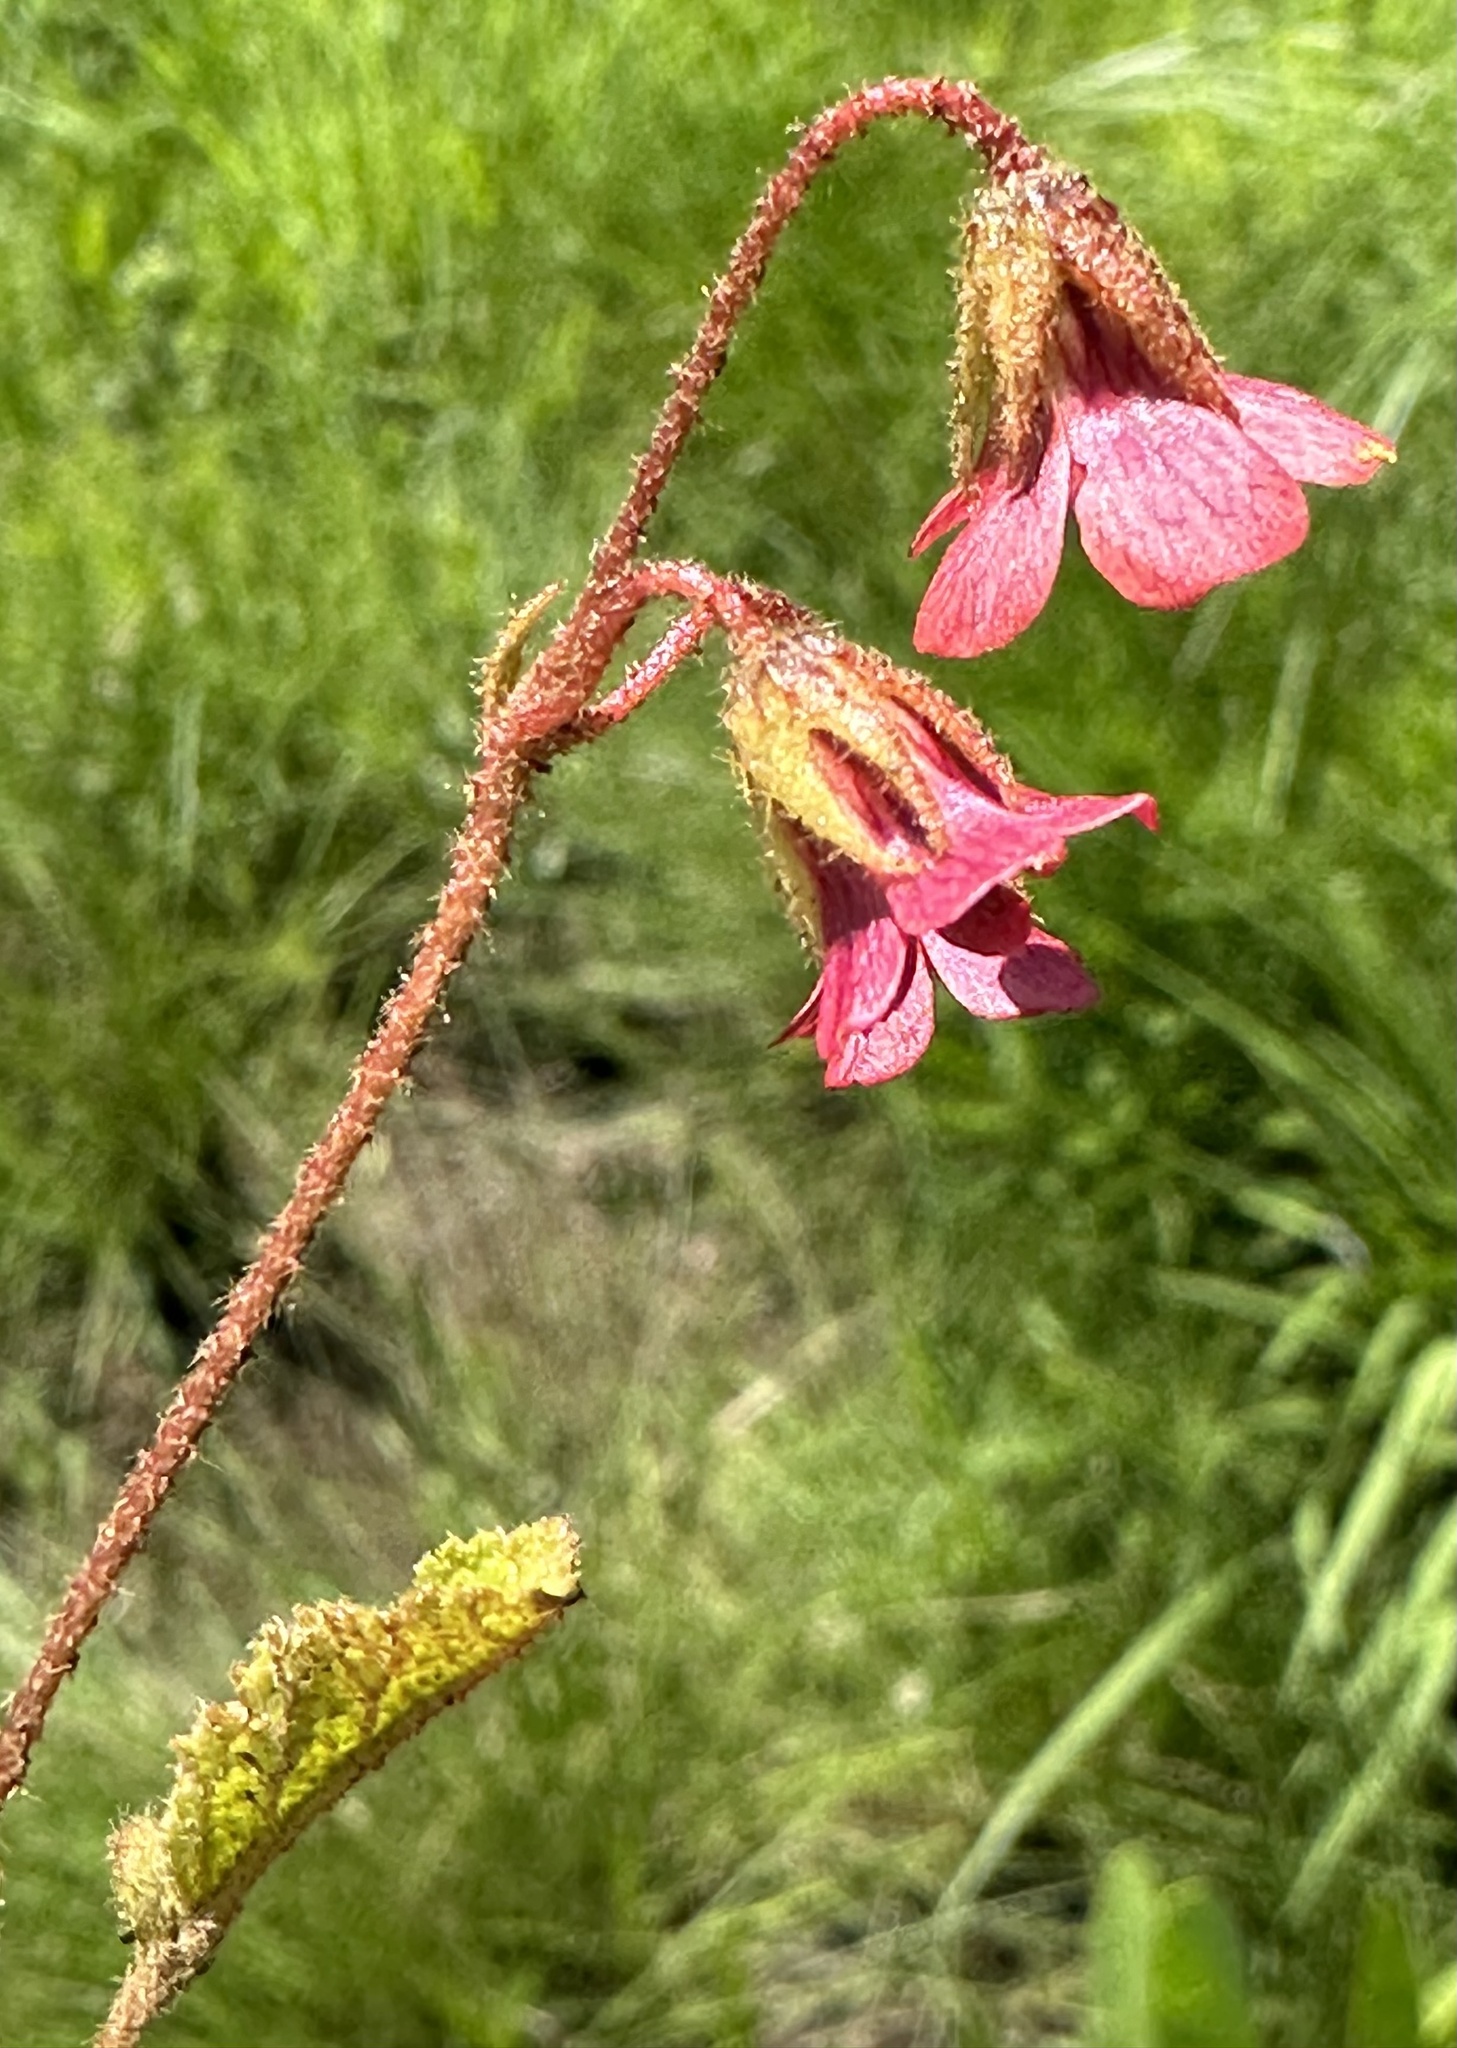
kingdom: Plantae
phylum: Tracheophyta
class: Magnoliopsida
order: Malvales
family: Malvaceae
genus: Hermannia
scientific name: Hermannia woodii
